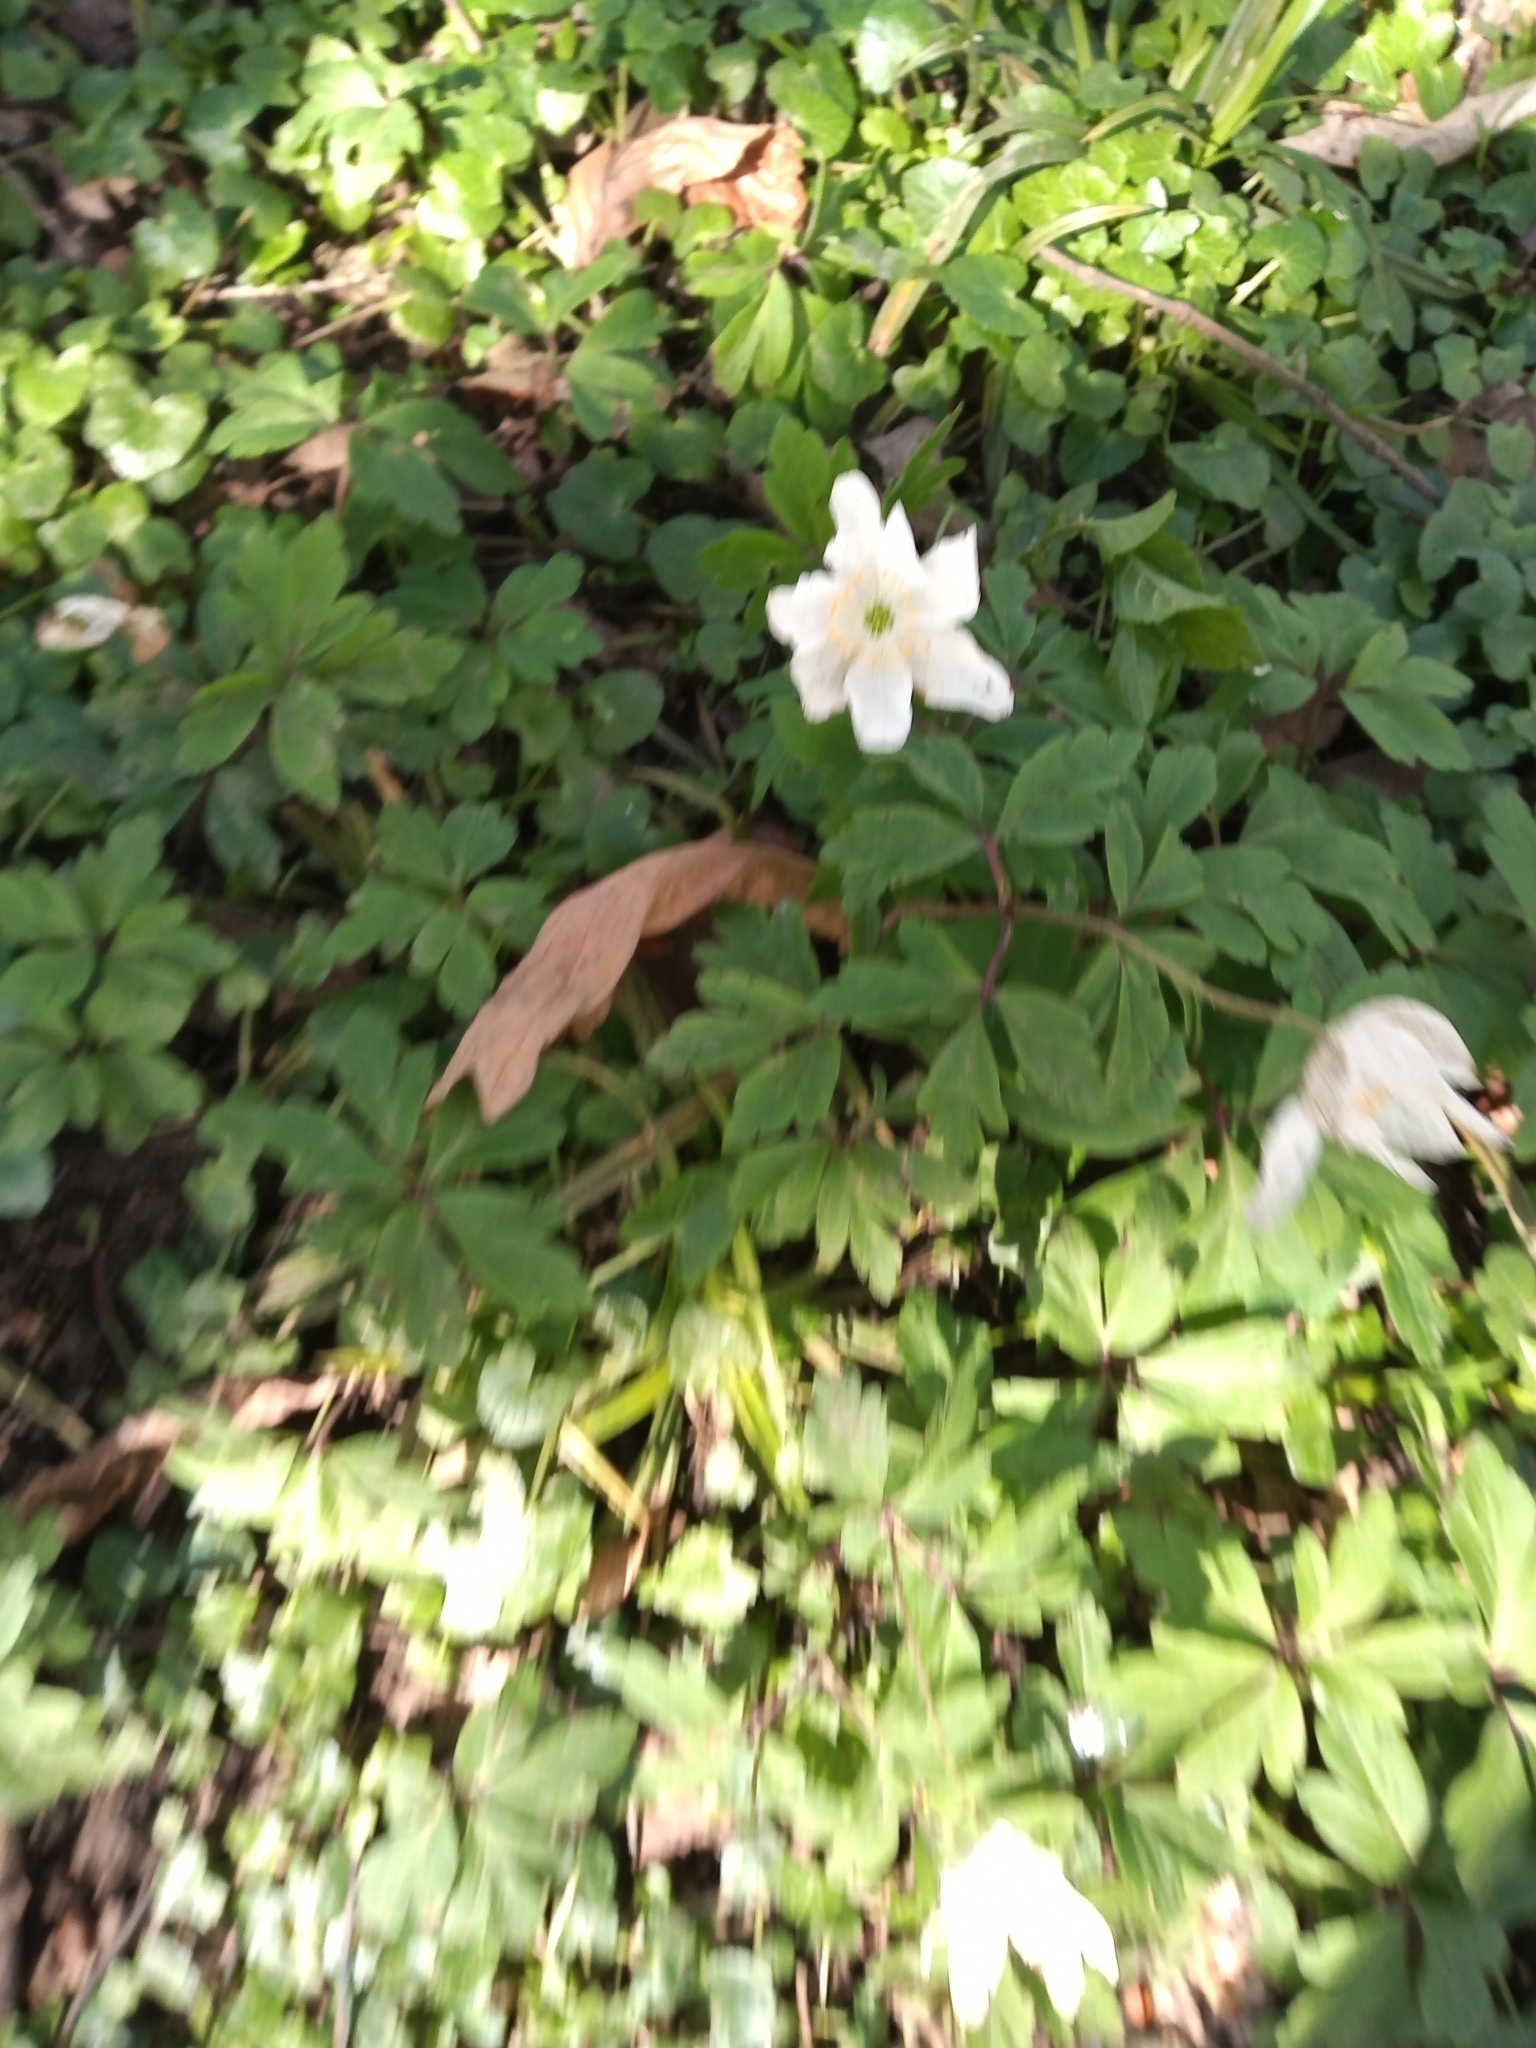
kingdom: Plantae
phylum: Tracheophyta
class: Magnoliopsida
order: Ranunculales
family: Ranunculaceae
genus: Anemone
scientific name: Anemone nemorosa
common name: Wood anemone
